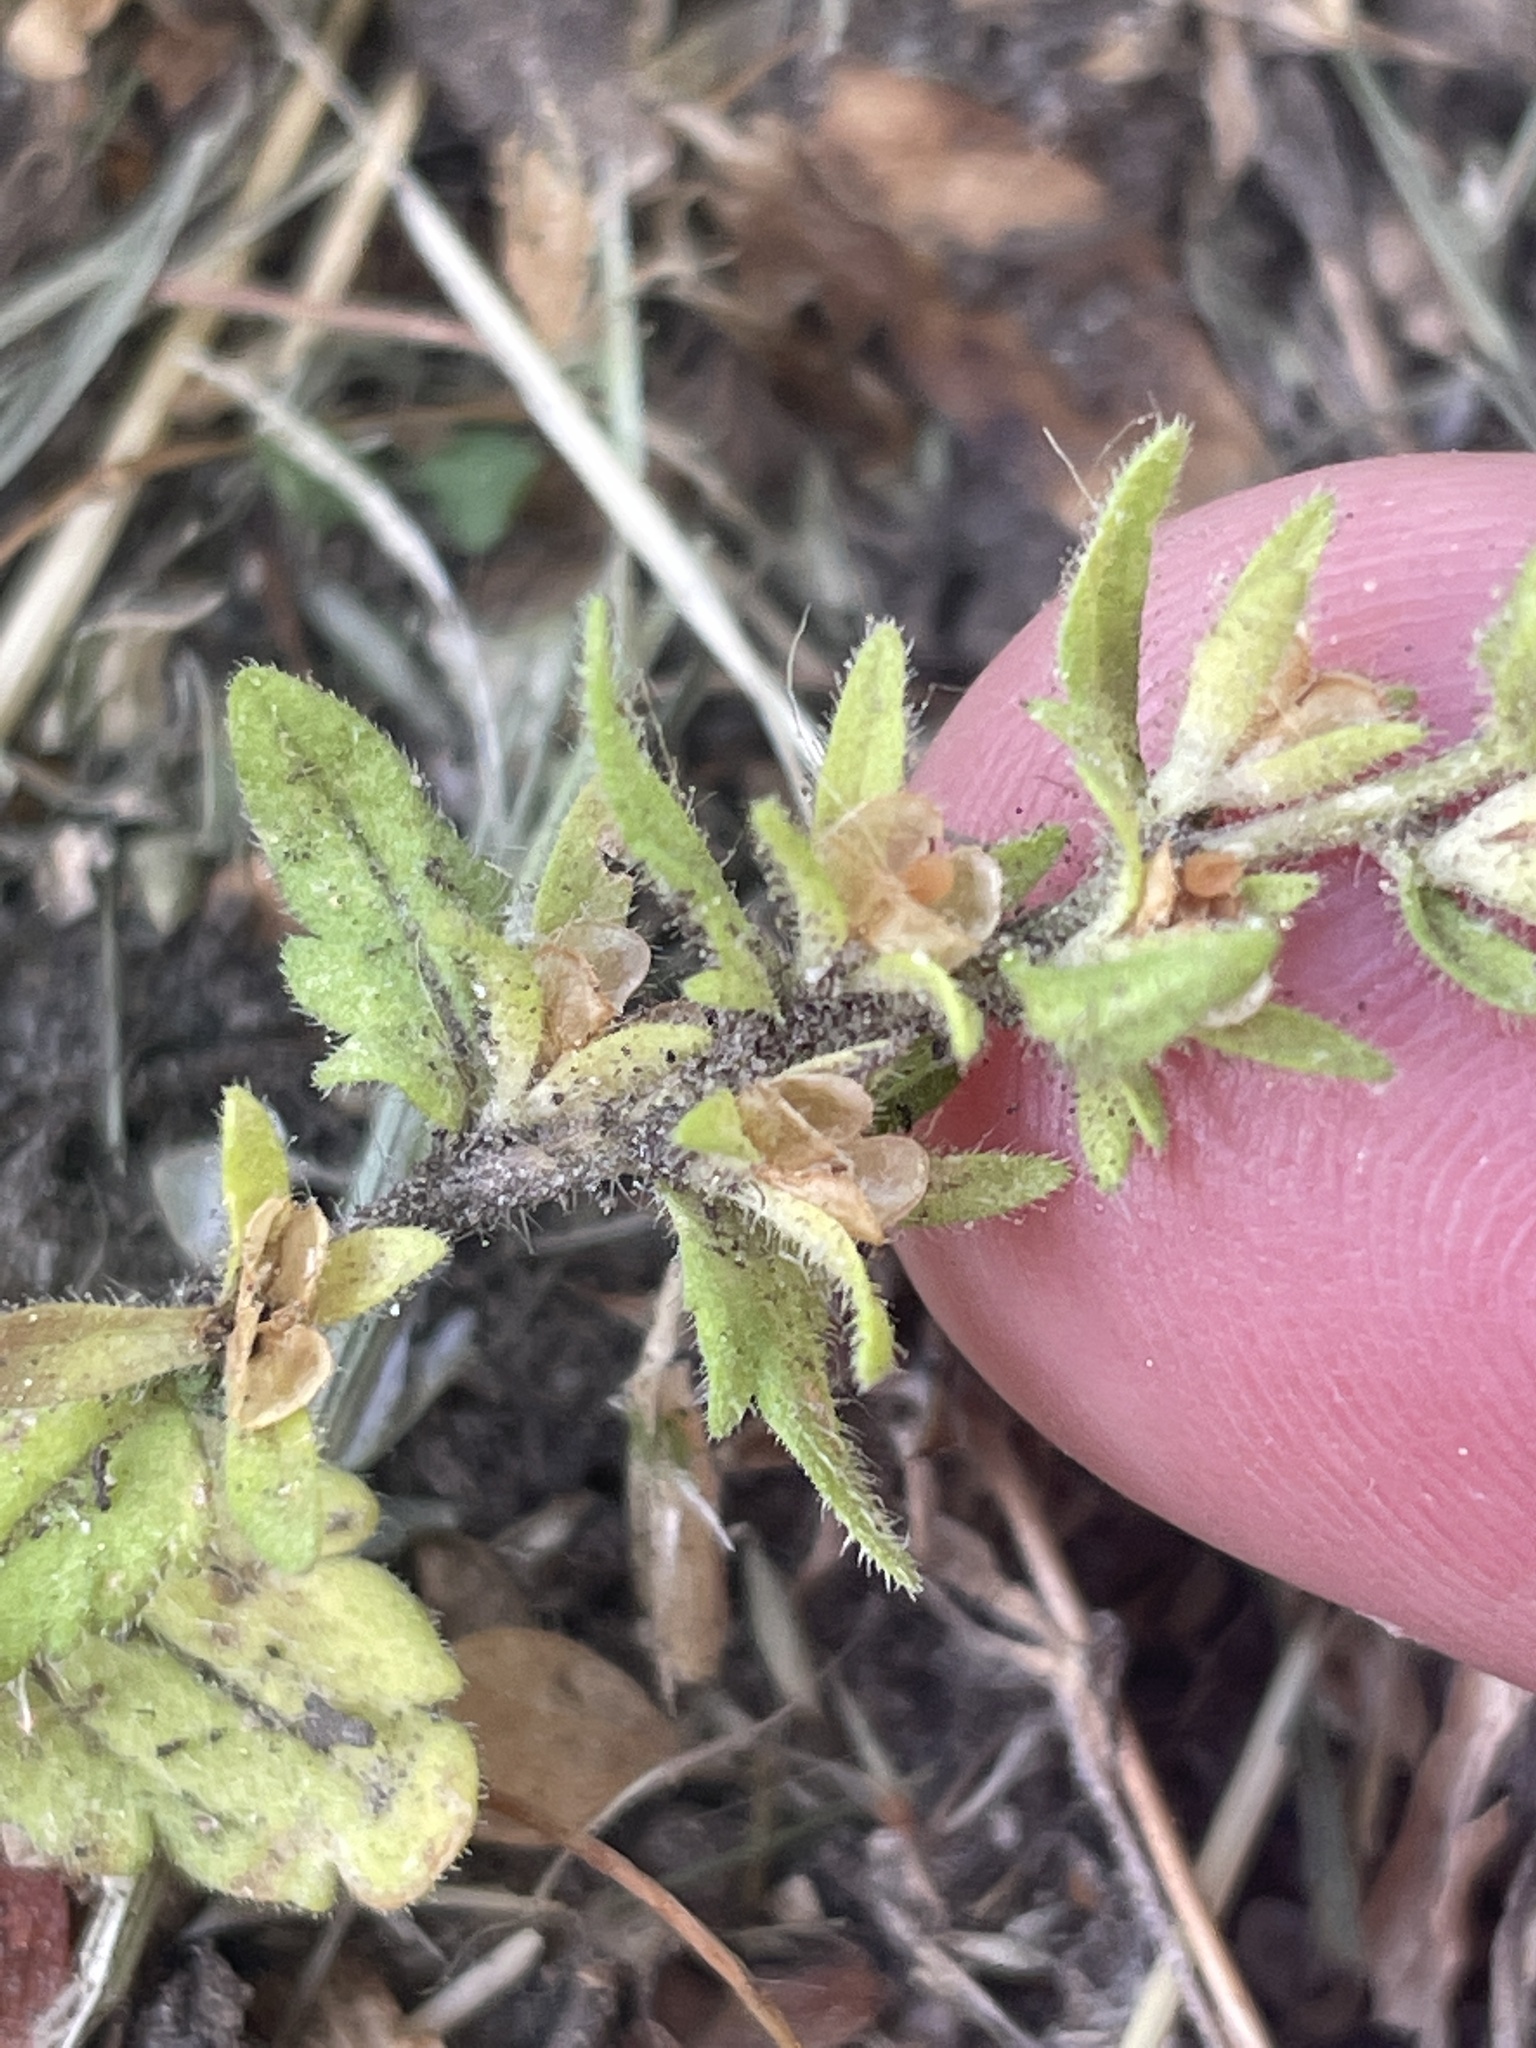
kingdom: Plantae
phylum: Tracheophyta
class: Magnoliopsida
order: Lamiales
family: Plantaginaceae
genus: Veronica
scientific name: Veronica arvensis
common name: Corn speedwell
